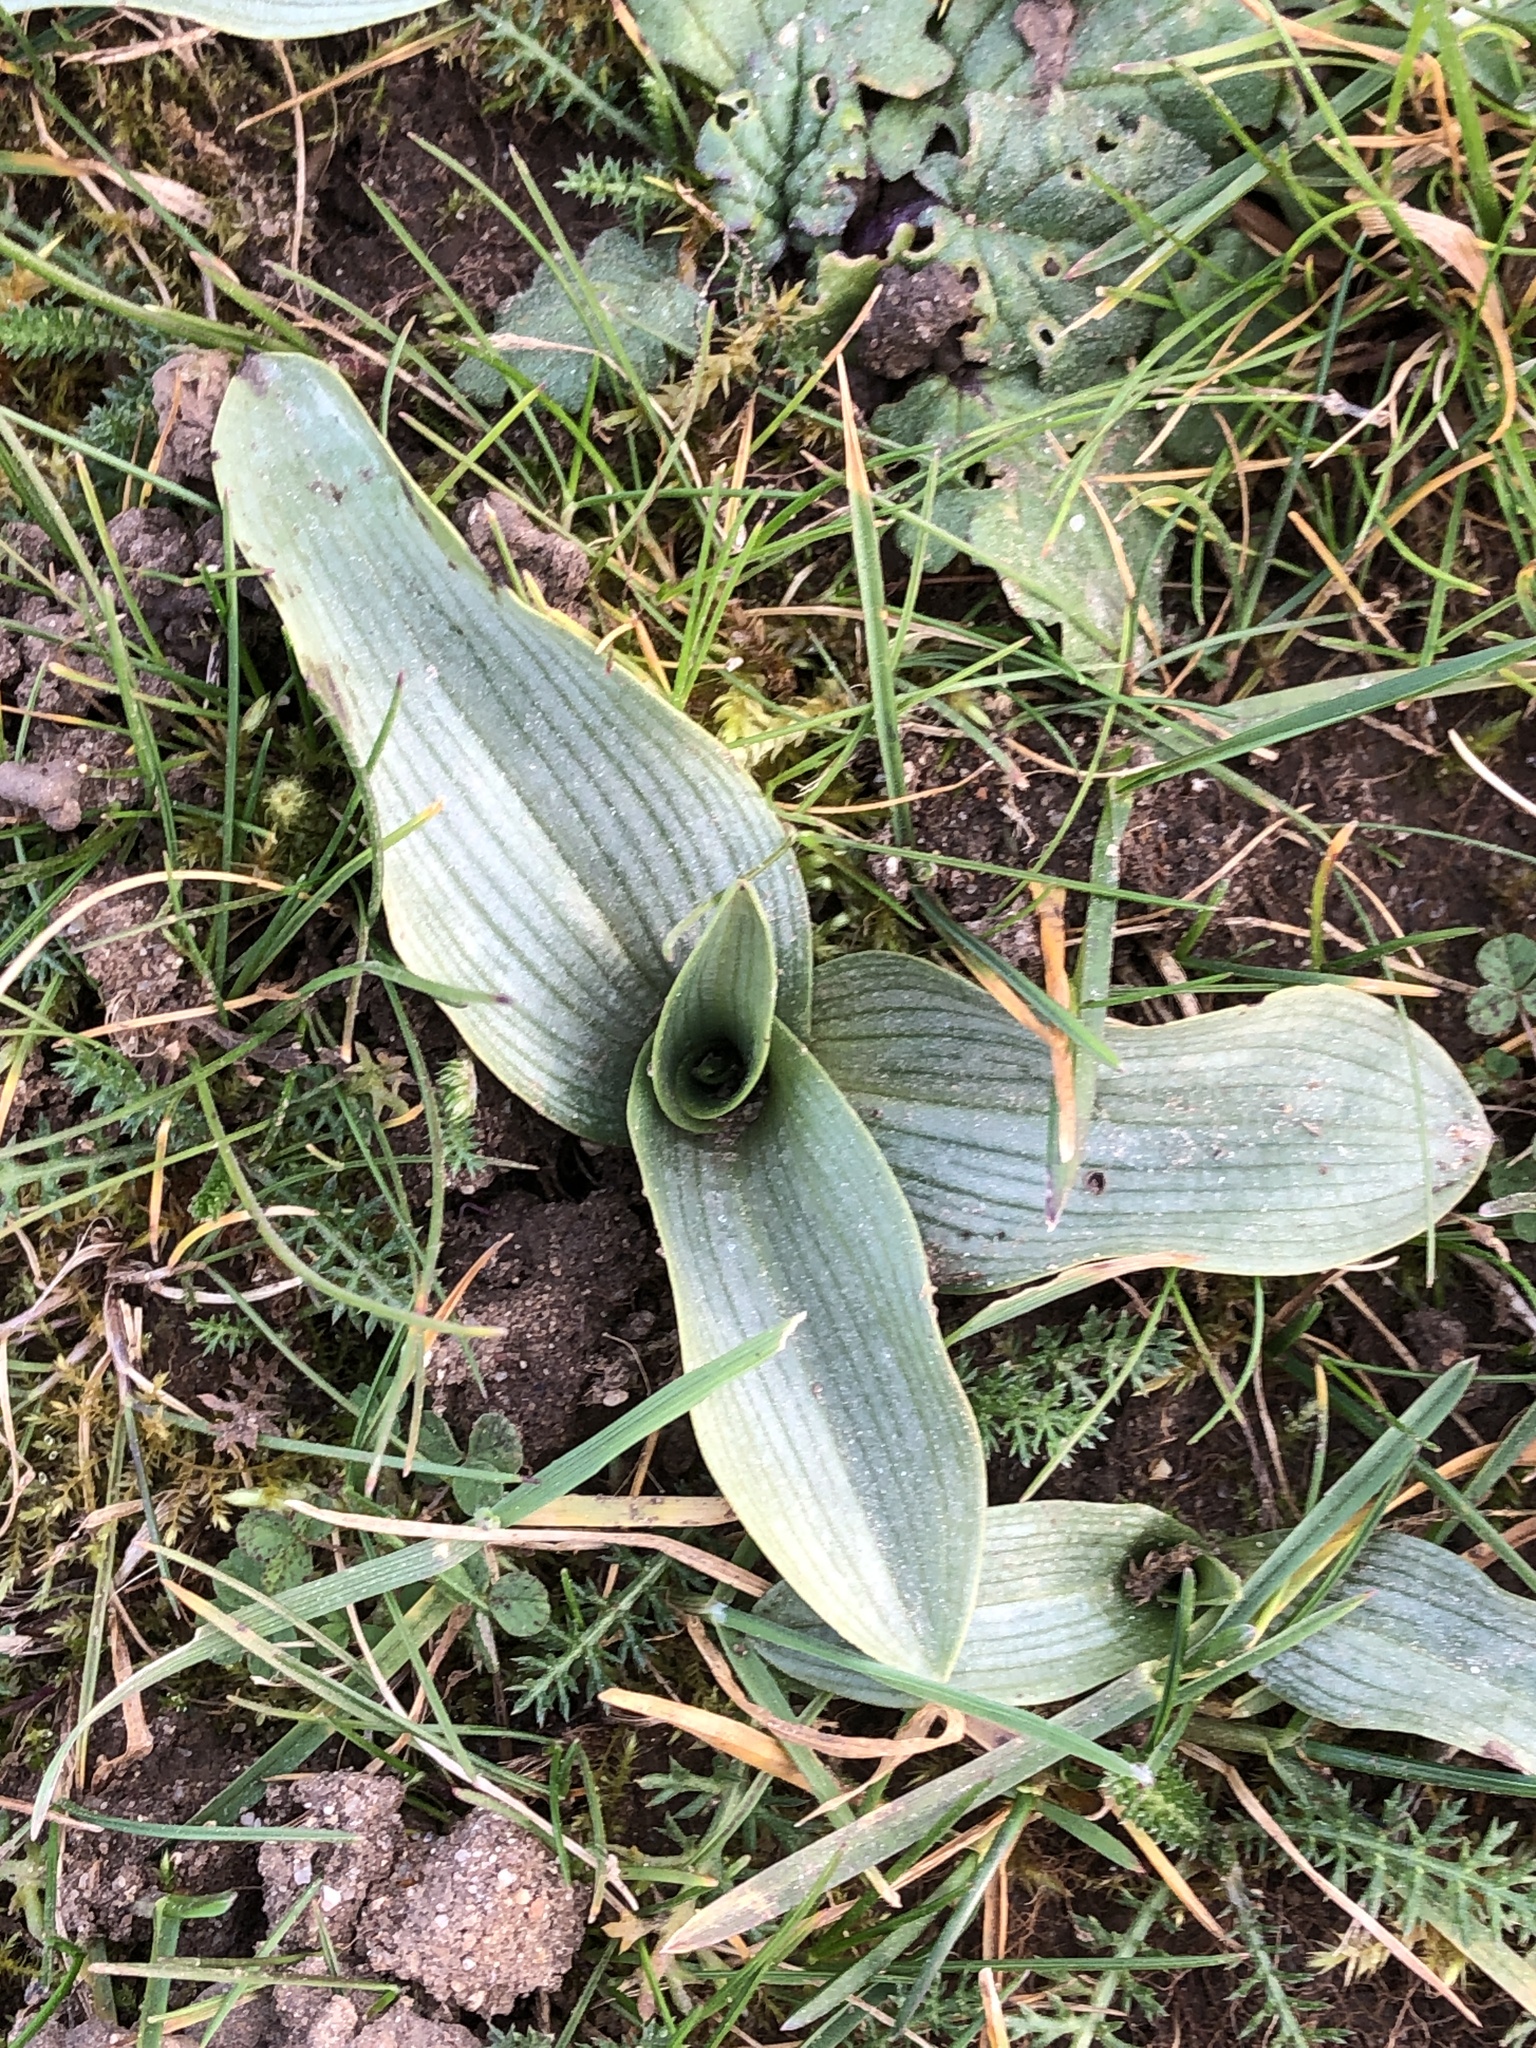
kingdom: Plantae
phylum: Tracheophyta
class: Liliopsida
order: Asparagales
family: Orchidaceae
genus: Ophrys
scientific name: Ophrys apifera
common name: Bee orchid
